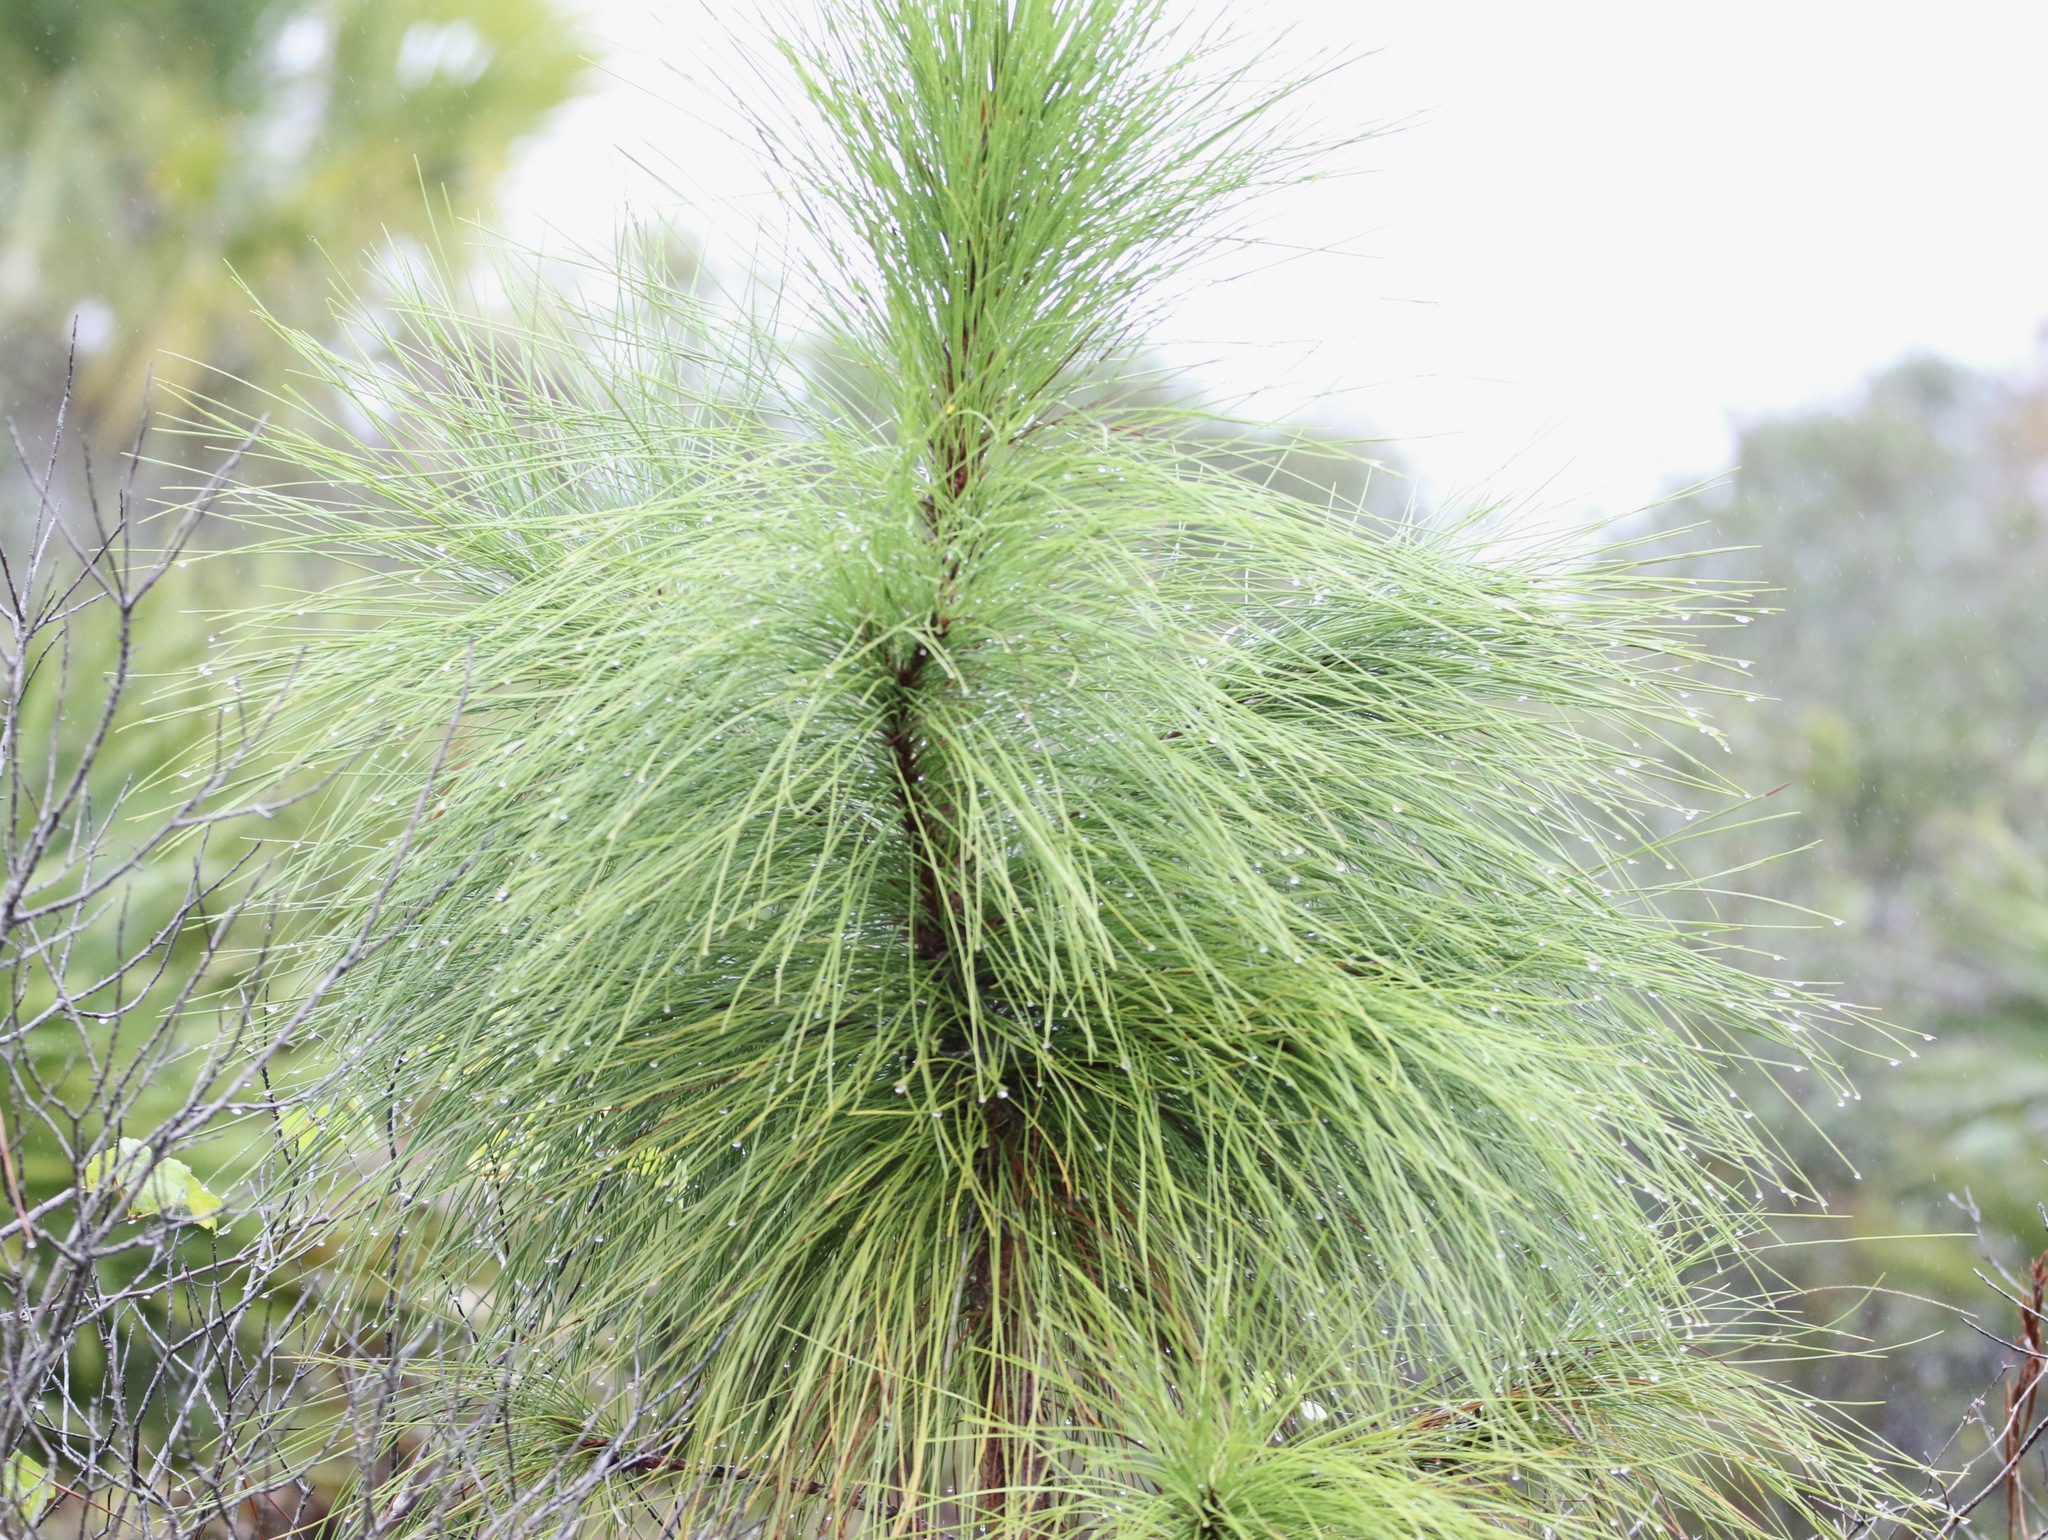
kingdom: Plantae
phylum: Tracheophyta
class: Pinopsida
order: Pinales
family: Pinaceae
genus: Pinus
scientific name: Pinus elliottii
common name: Slash pine
